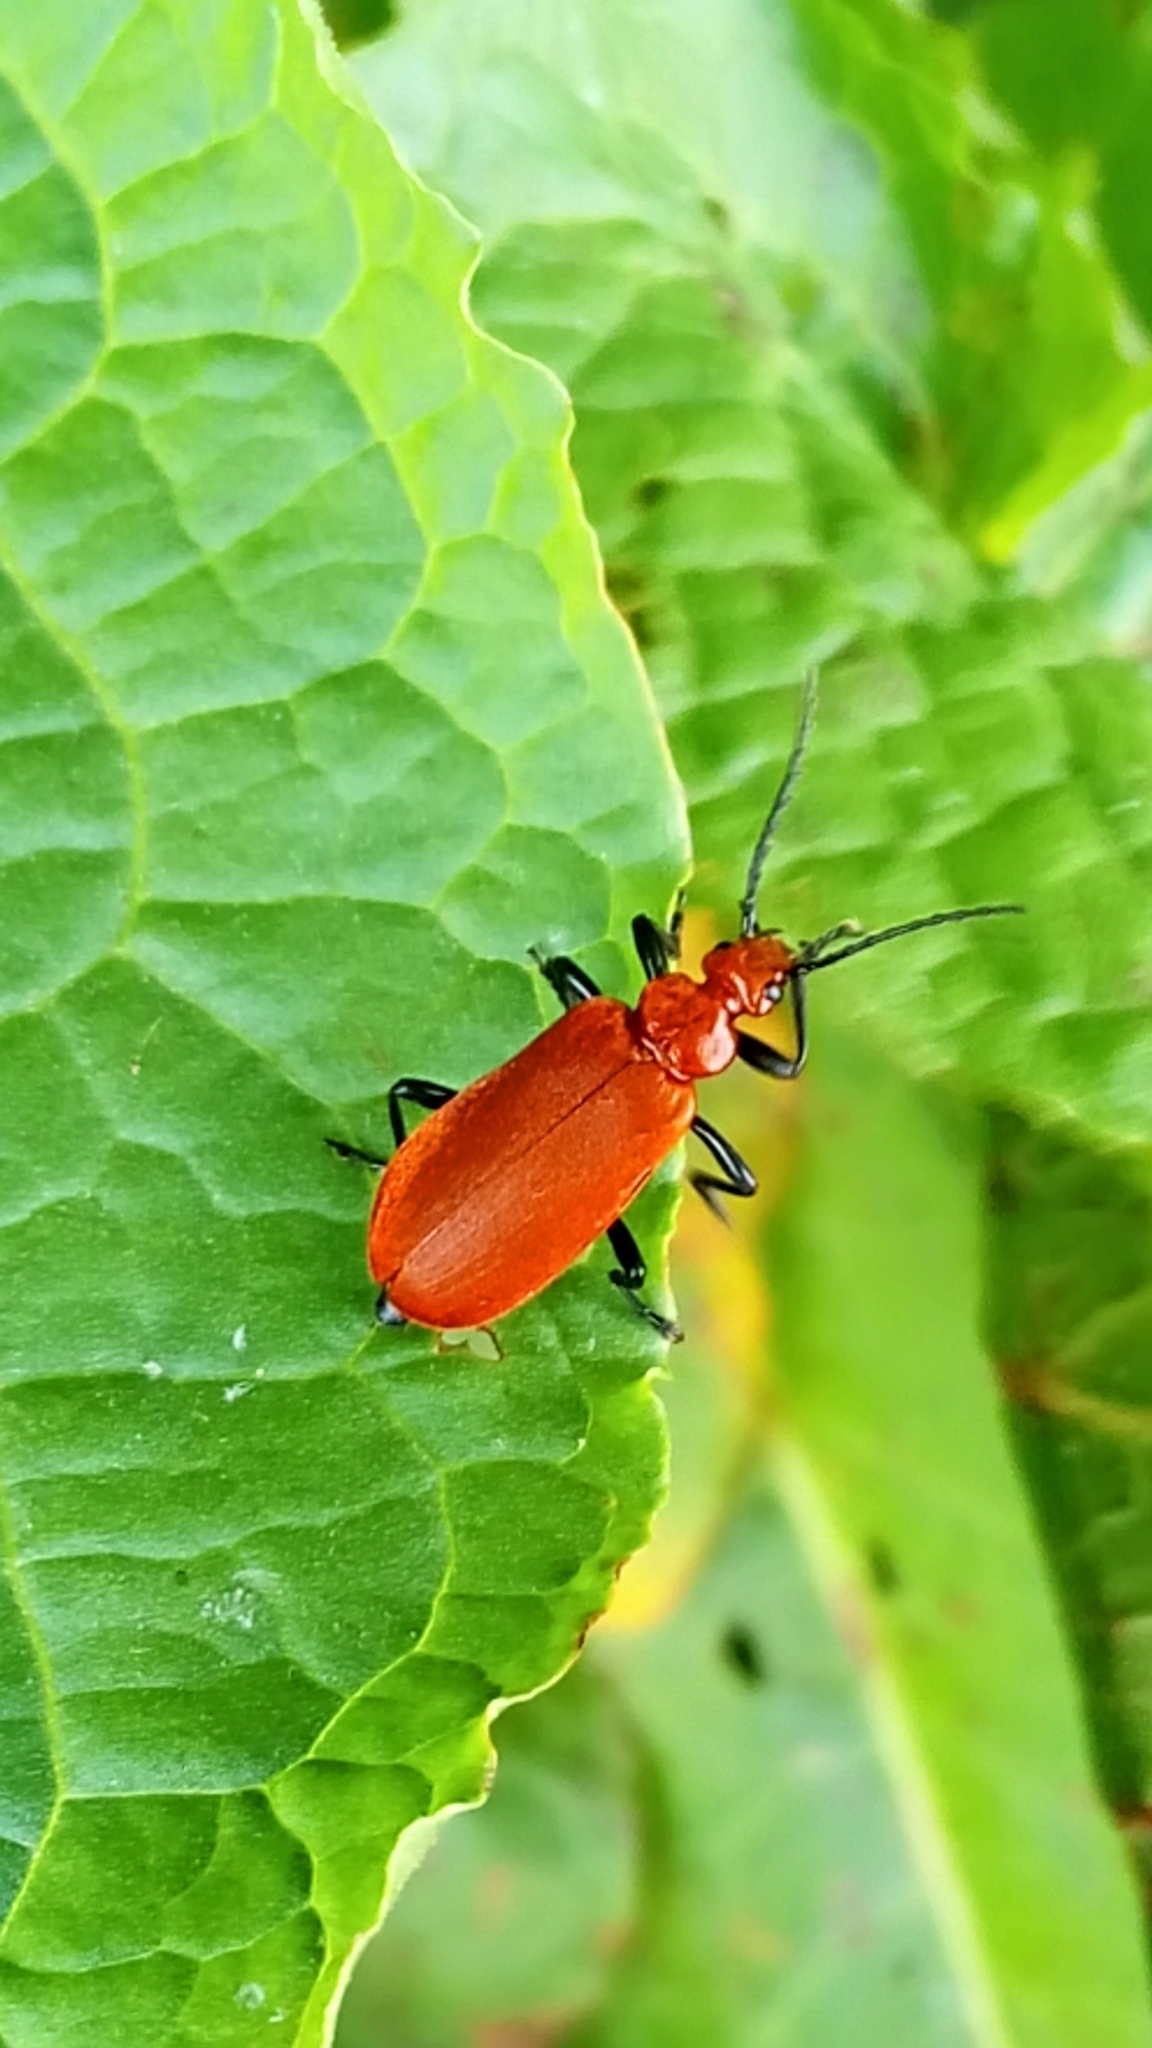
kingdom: Animalia
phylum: Arthropoda
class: Insecta
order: Coleoptera
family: Pyrochroidae
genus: Pyrochroa
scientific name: Pyrochroa serraticornis
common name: Red-headed cardinal beetle
